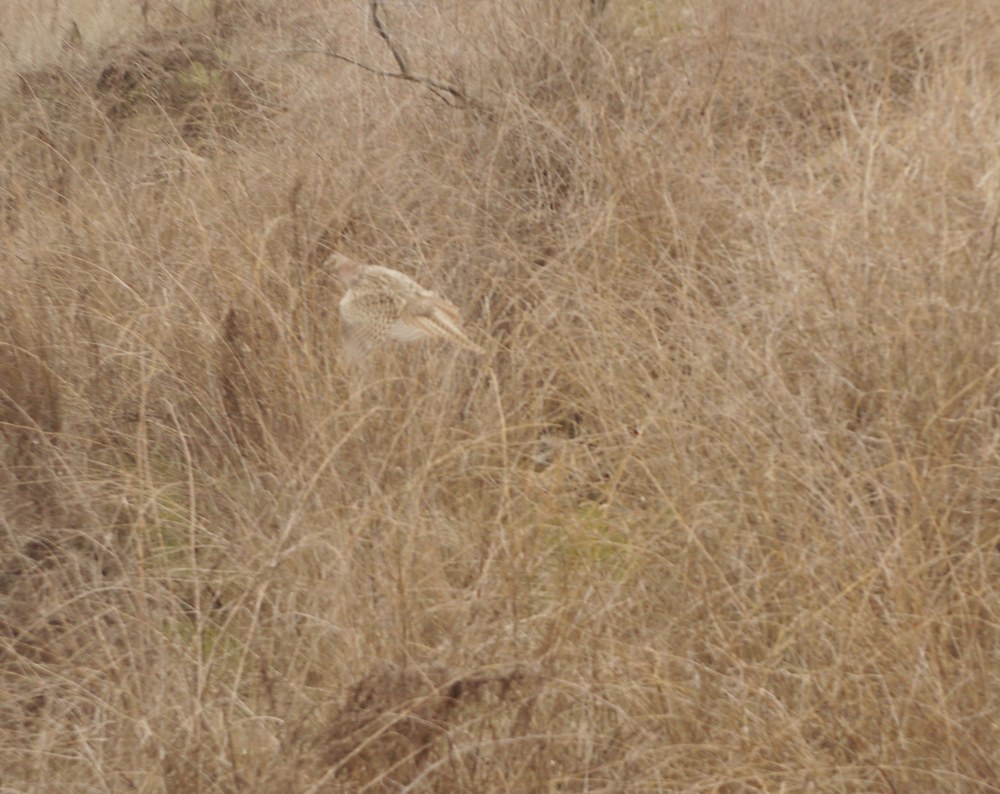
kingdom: Animalia
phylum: Chordata
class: Aves
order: Galliformes
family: Phasianidae
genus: Phasianus
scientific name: Phasianus colchicus
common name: Common pheasant
